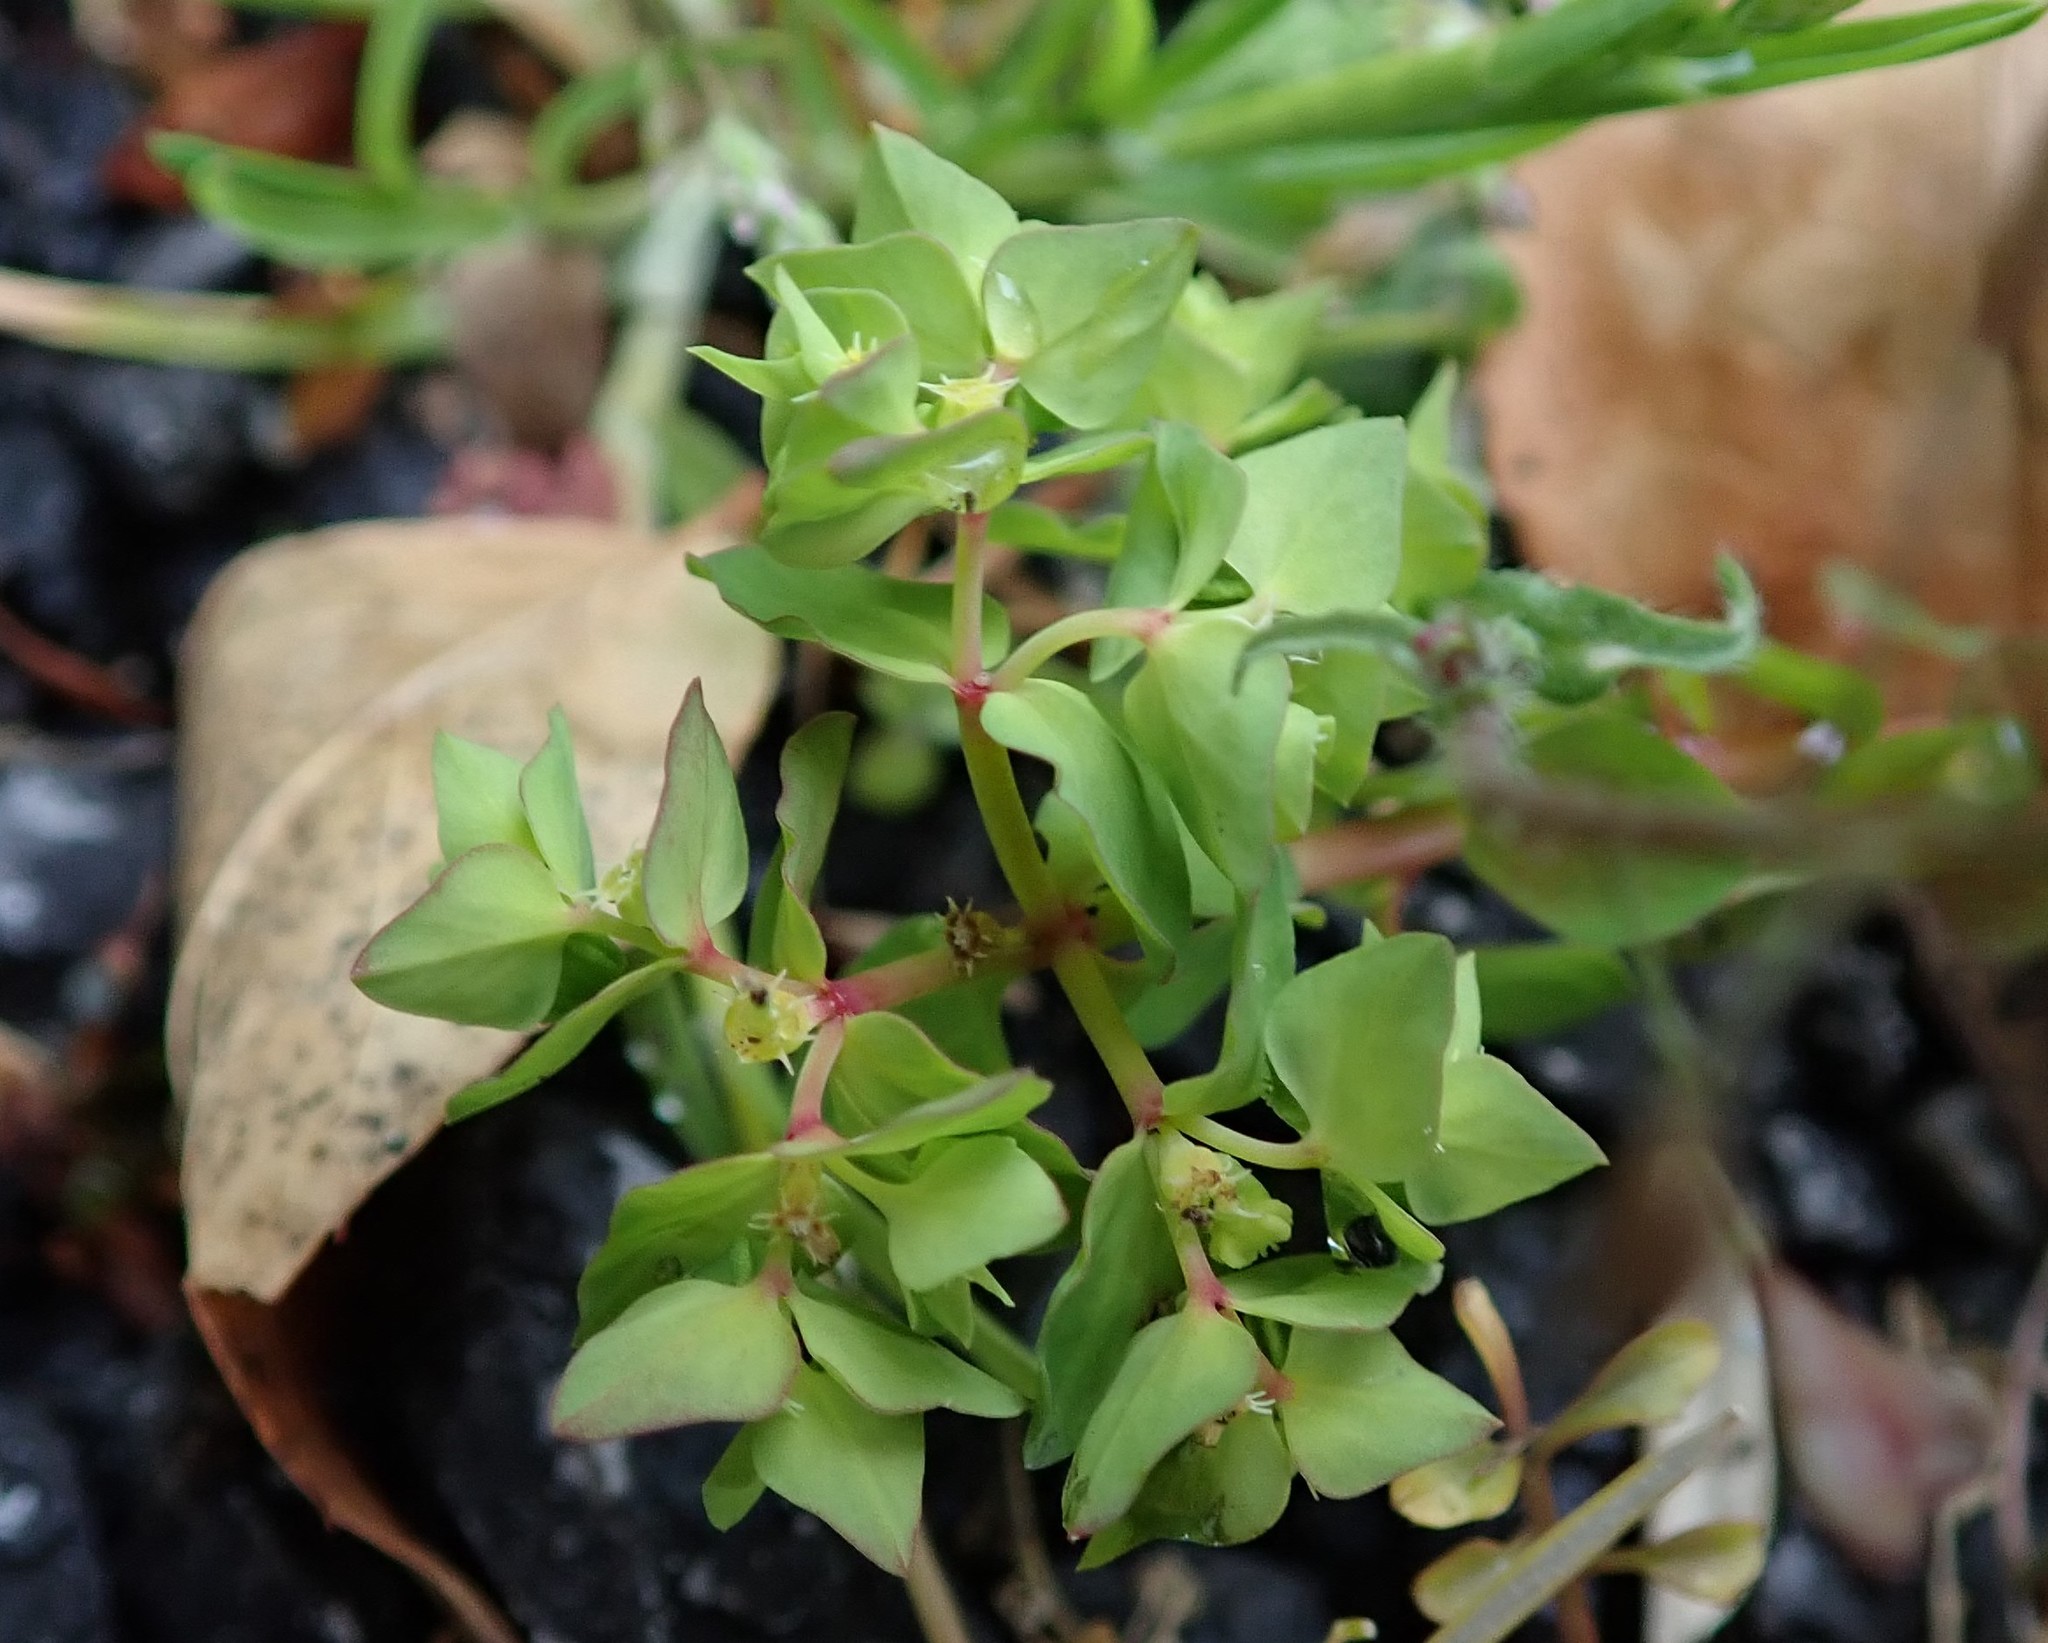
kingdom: Plantae
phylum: Tracheophyta
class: Magnoliopsida
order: Malpighiales
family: Euphorbiaceae
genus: Euphorbia
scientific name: Euphorbia peplus
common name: Petty spurge
